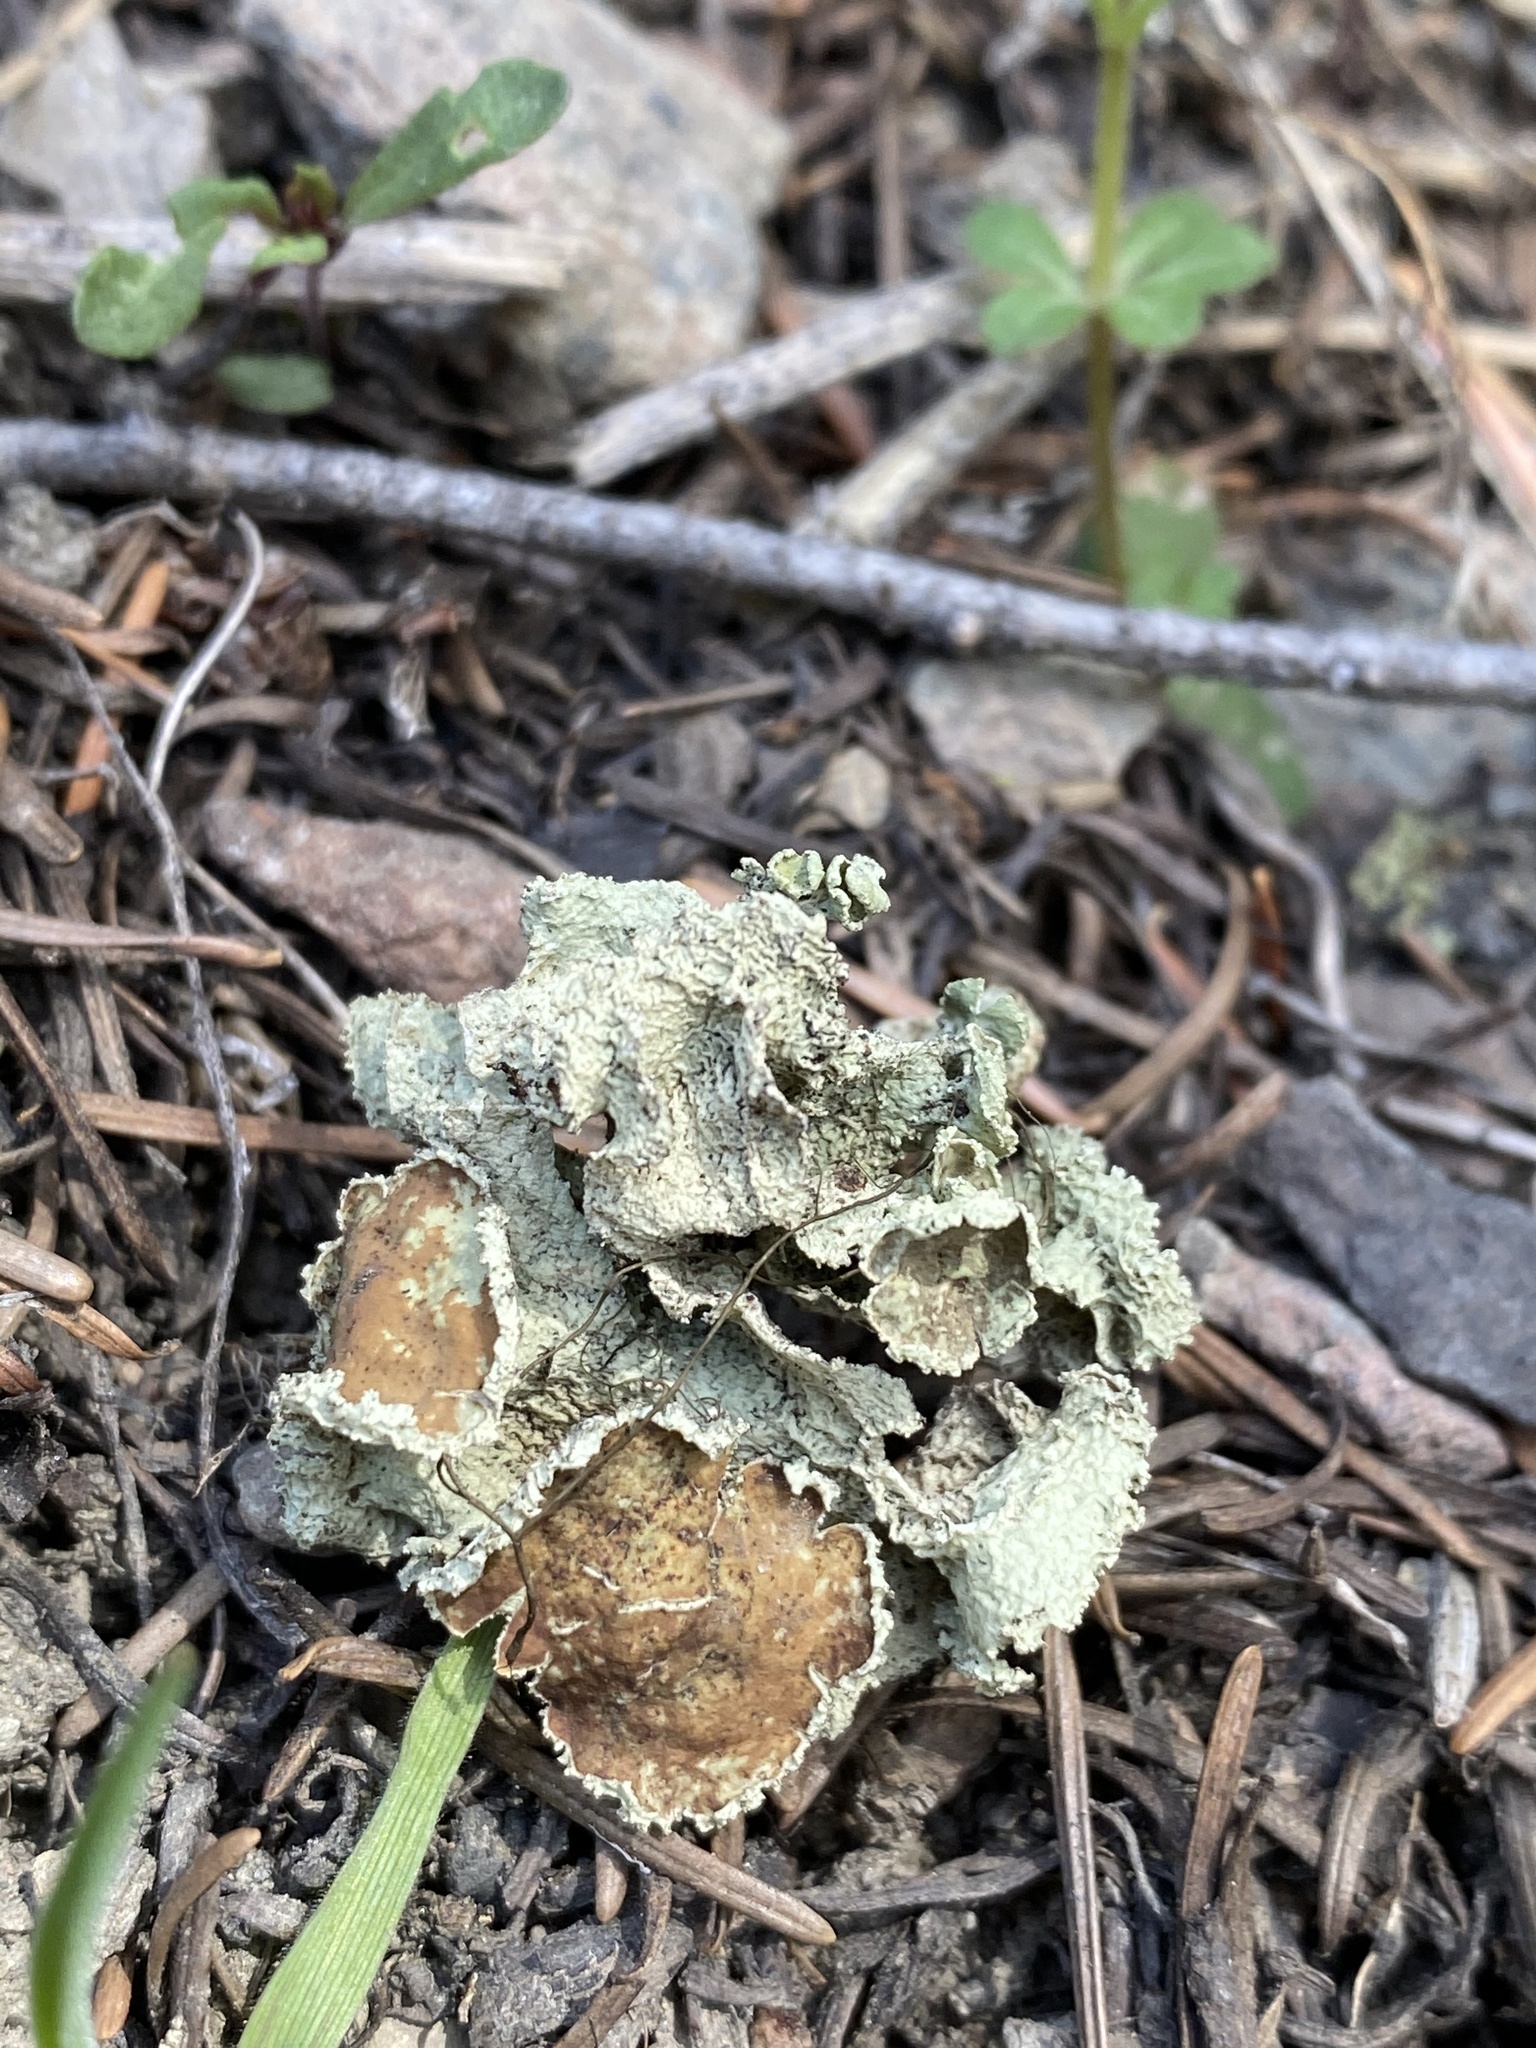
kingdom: Fungi
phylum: Ascomycota
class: Lecanoromycetes
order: Lecanorales
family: Parmeliaceae
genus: Ahtiana
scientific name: Ahtiana pallidula
